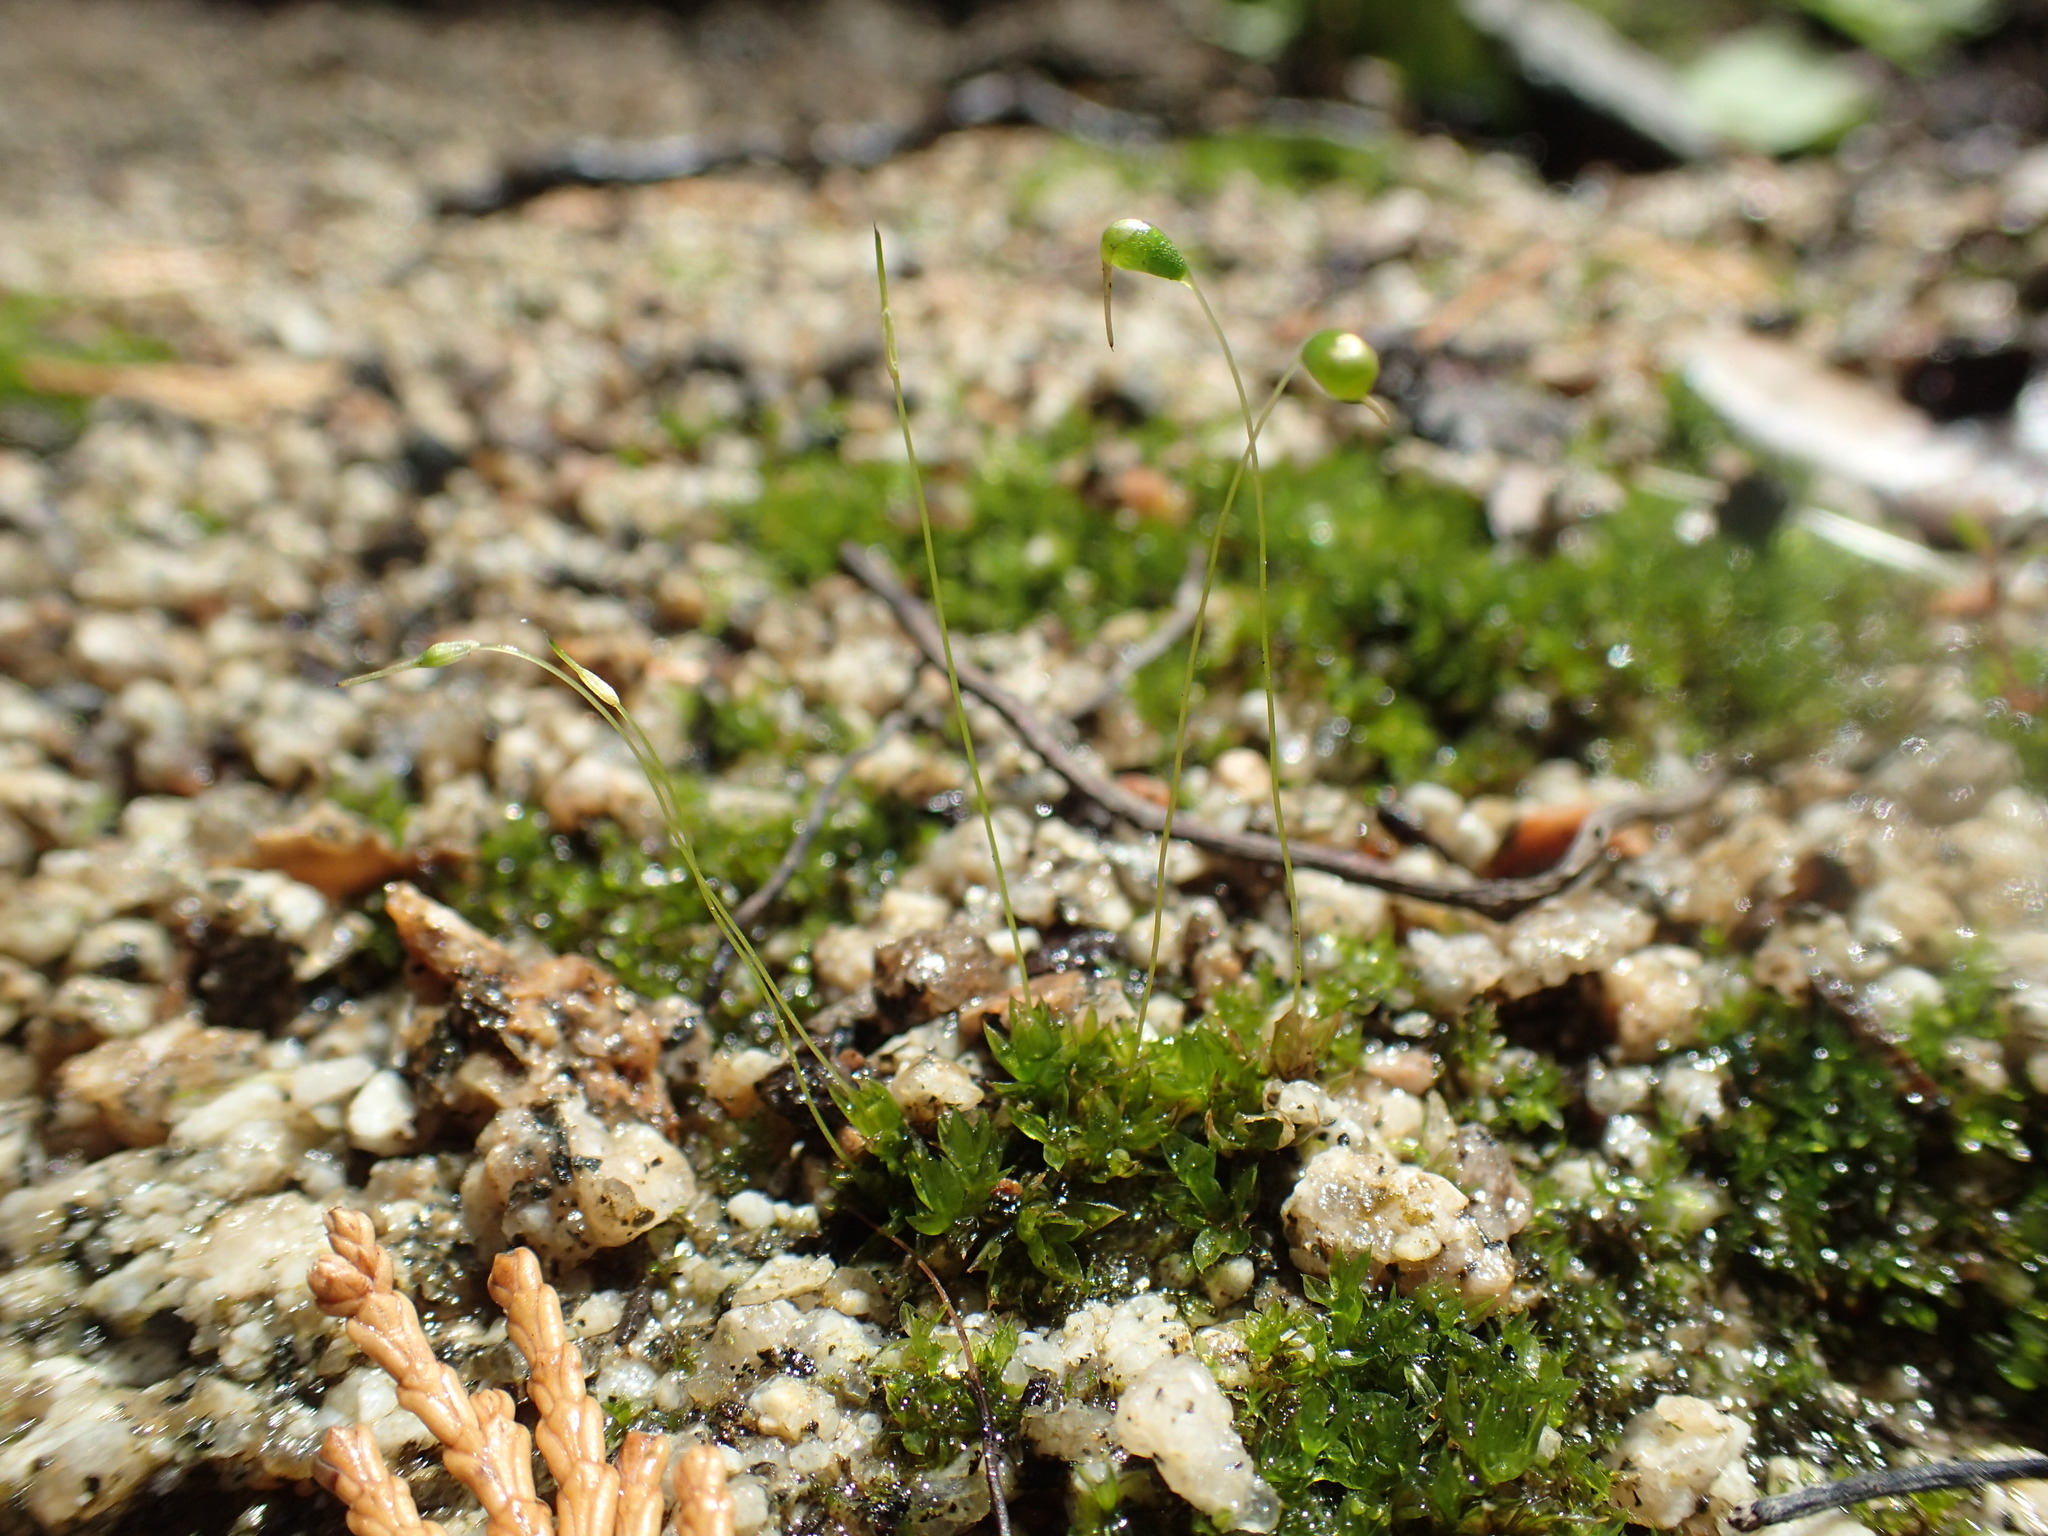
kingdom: Plantae
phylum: Bryophyta
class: Bryopsida
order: Funariales
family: Funariaceae
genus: Funaria
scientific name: Funaria hygrometrica
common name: Common cord moss
